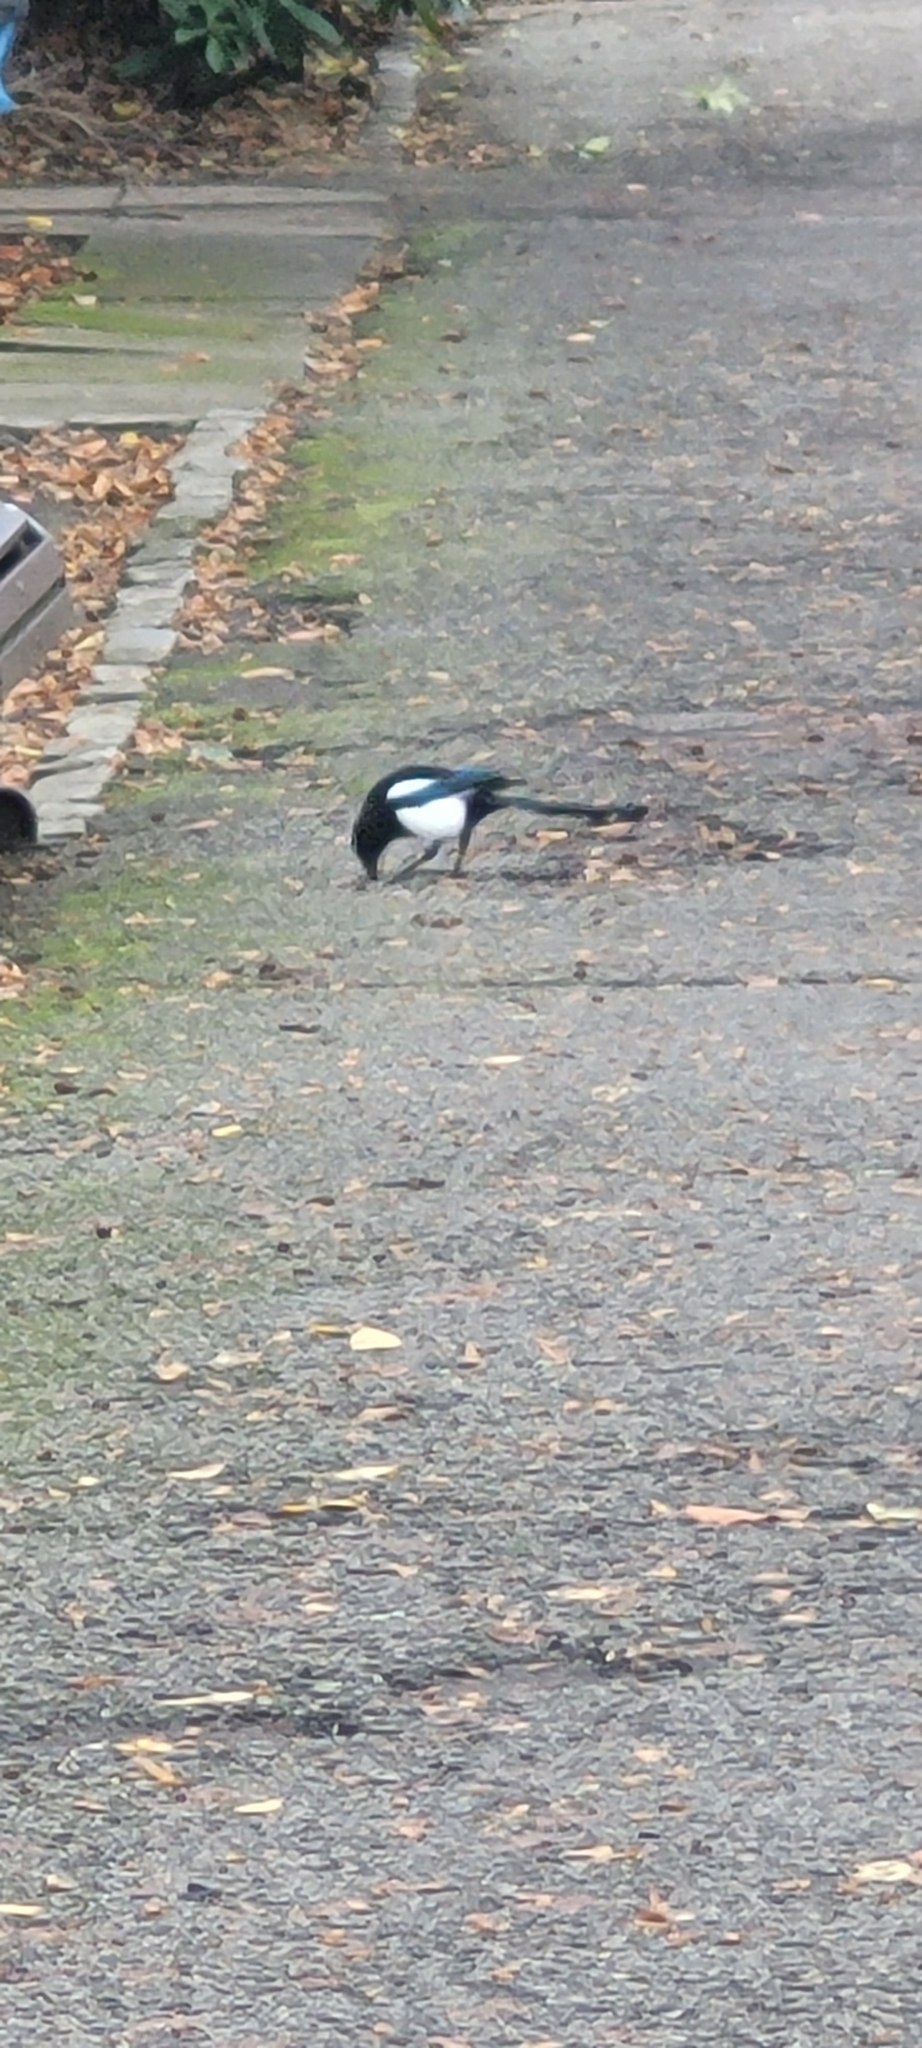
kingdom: Animalia
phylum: Chordata
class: Aves
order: Passeriformes
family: Corvidae
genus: Pica
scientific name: Pica pica
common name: Eurasian magpie
